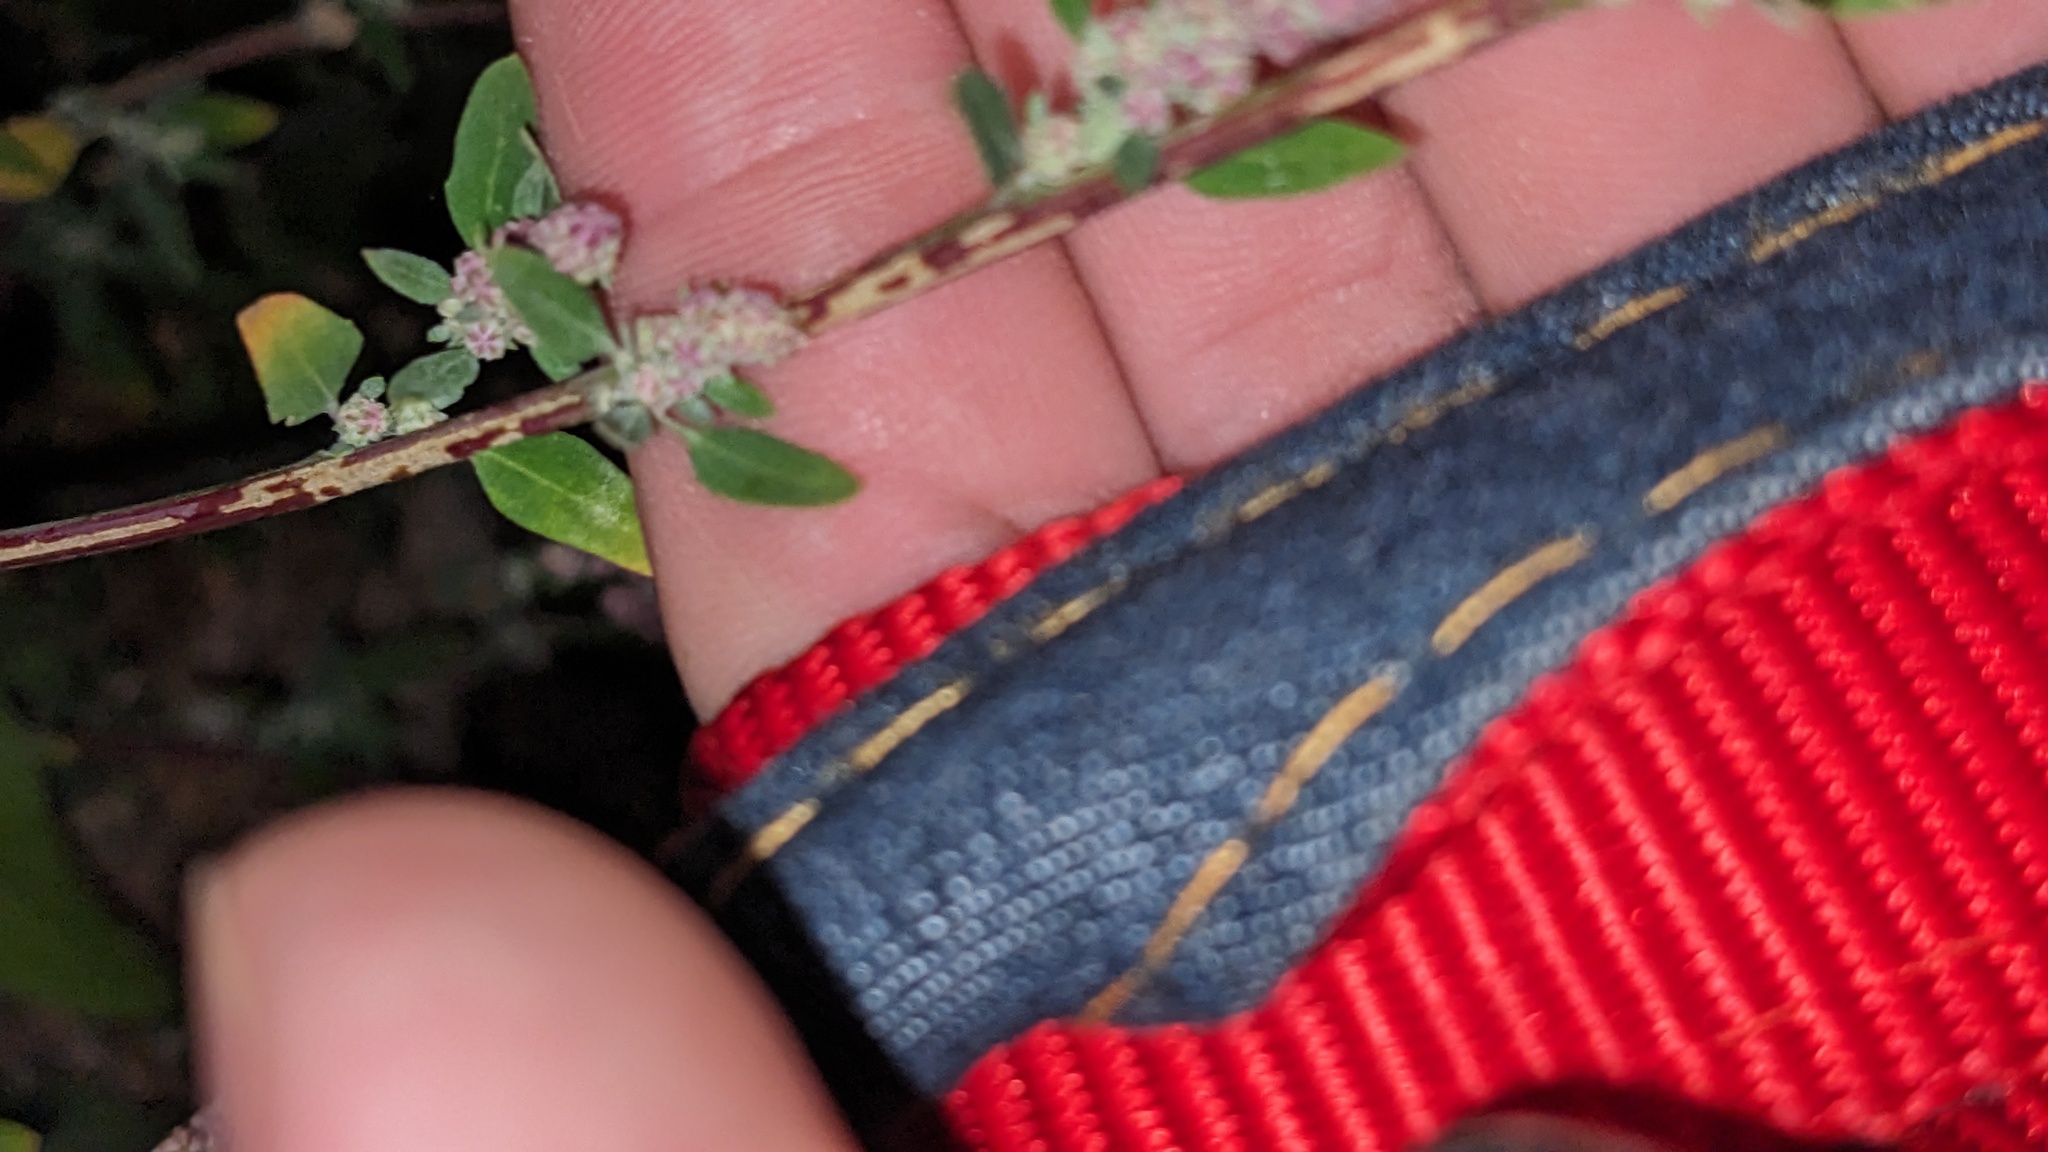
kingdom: Plantae
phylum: Tracheophyta
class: Magnoliopsida
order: Caryophyllales
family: Amaranthaceae
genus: Chenopodium
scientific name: Chenopodium album
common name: Fat-hen
